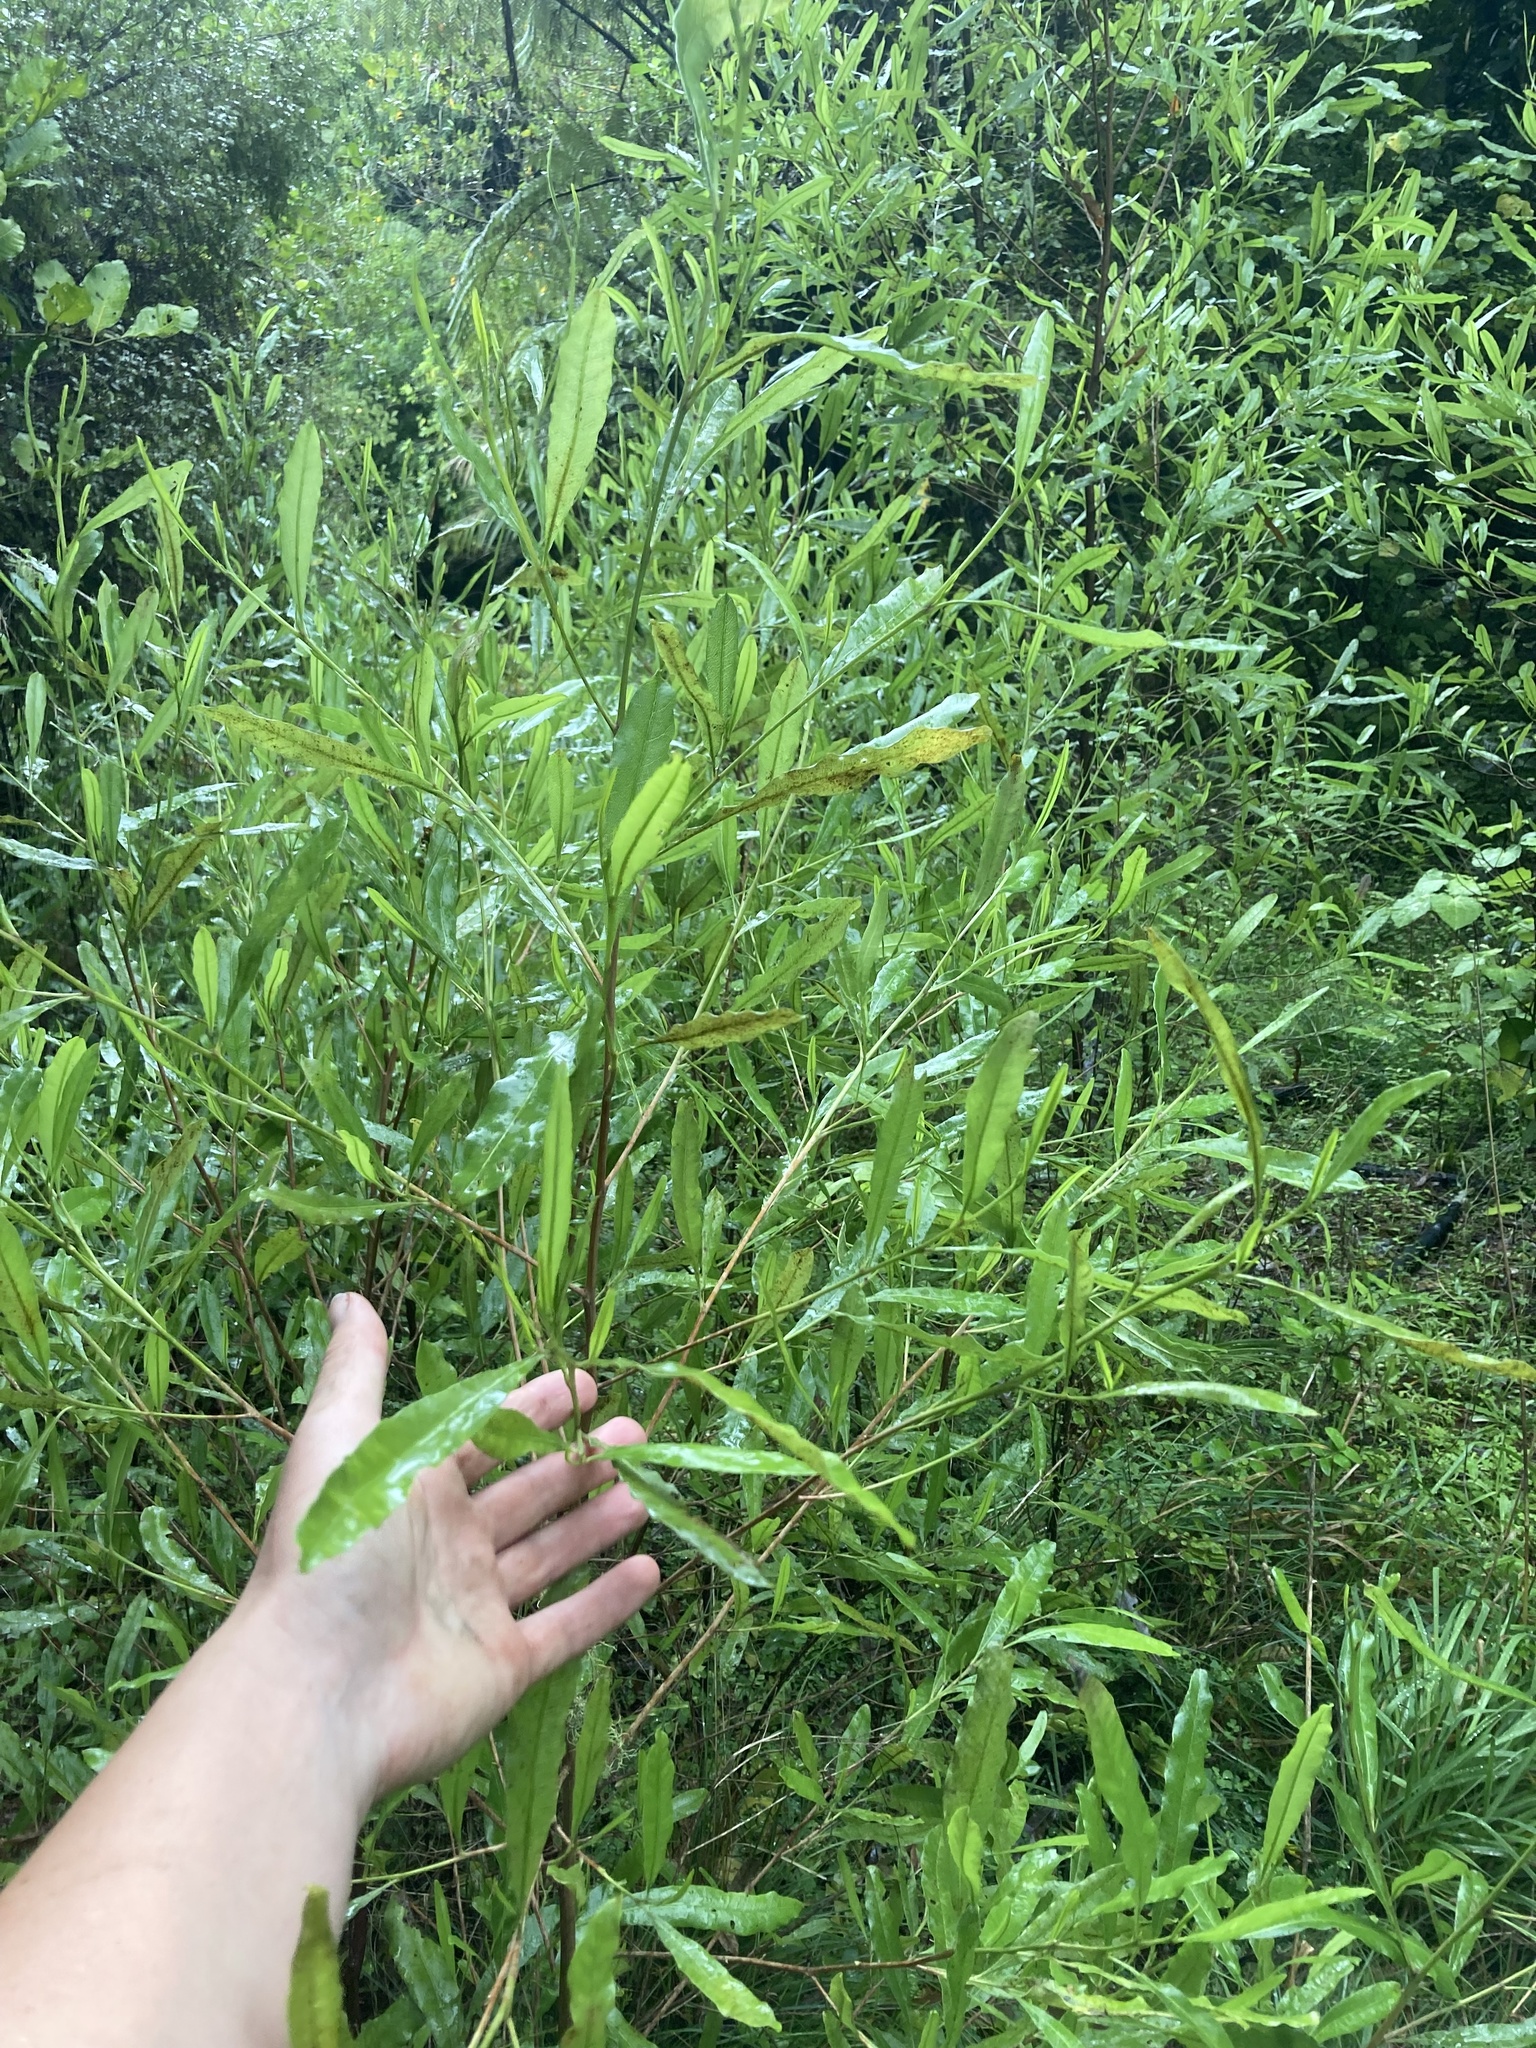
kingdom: Plantae
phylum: Tracheophyta
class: Magnoliopsida
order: Sapindales
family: Sapindaceae
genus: Dodonaea
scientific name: Dodonaea viscosa
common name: Hopbush
